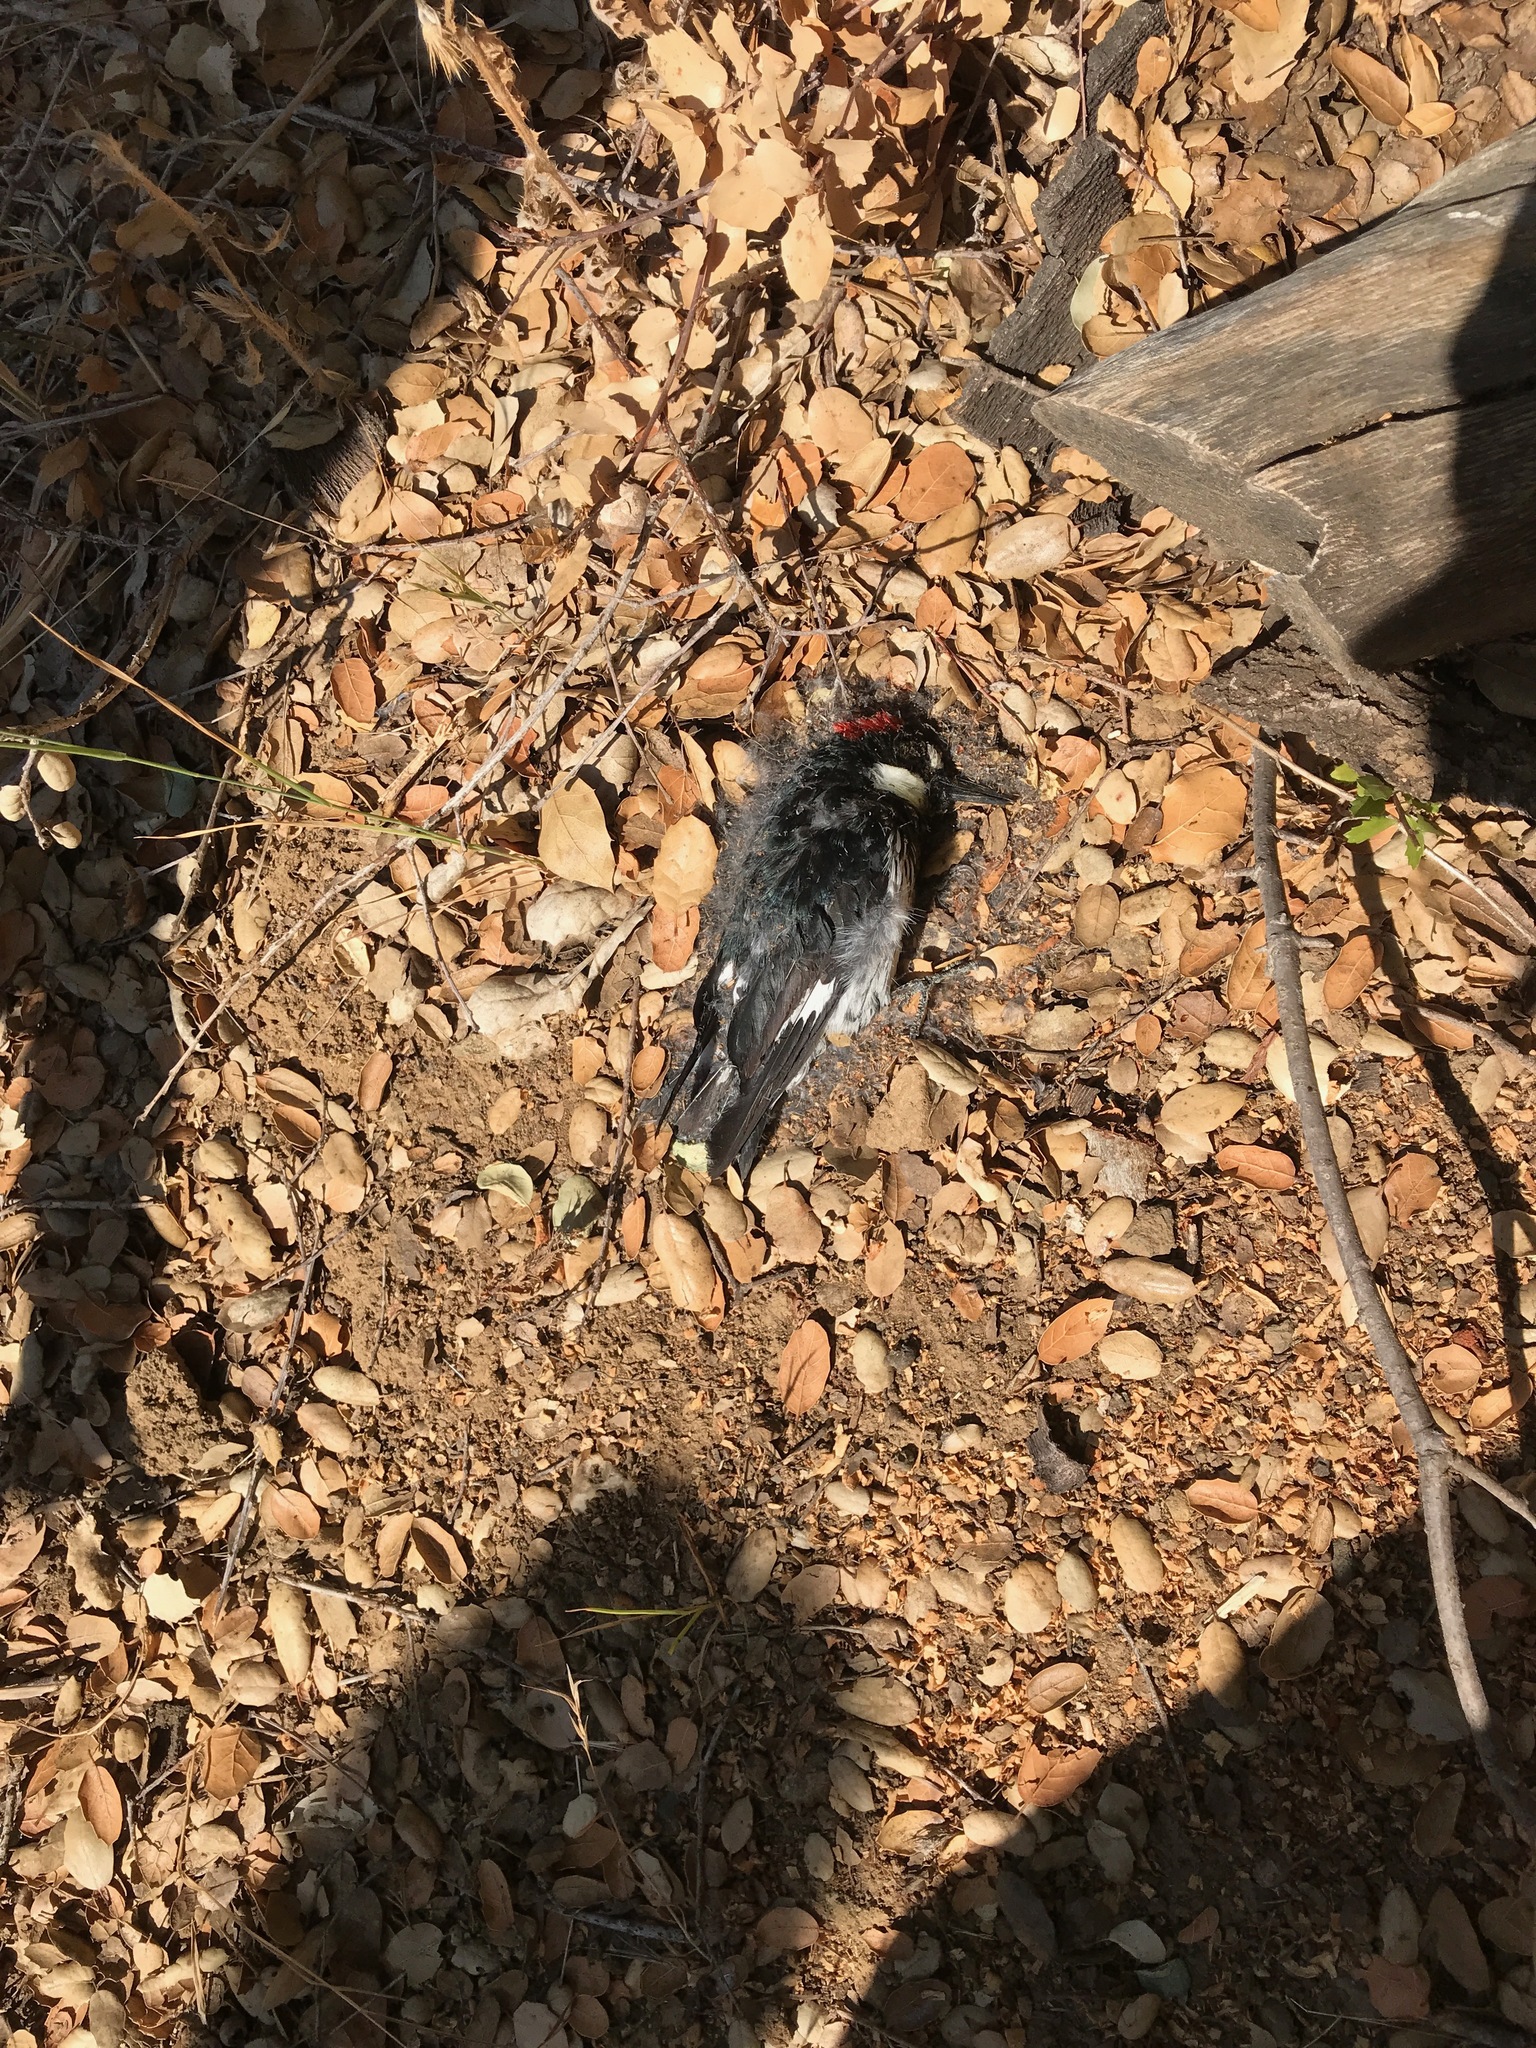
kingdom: Animalia
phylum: Chordata
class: Aves
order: Piciformes
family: Picidae
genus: Melanerpes
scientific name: Melanerpes formicivorus
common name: Acorn woodpecker
